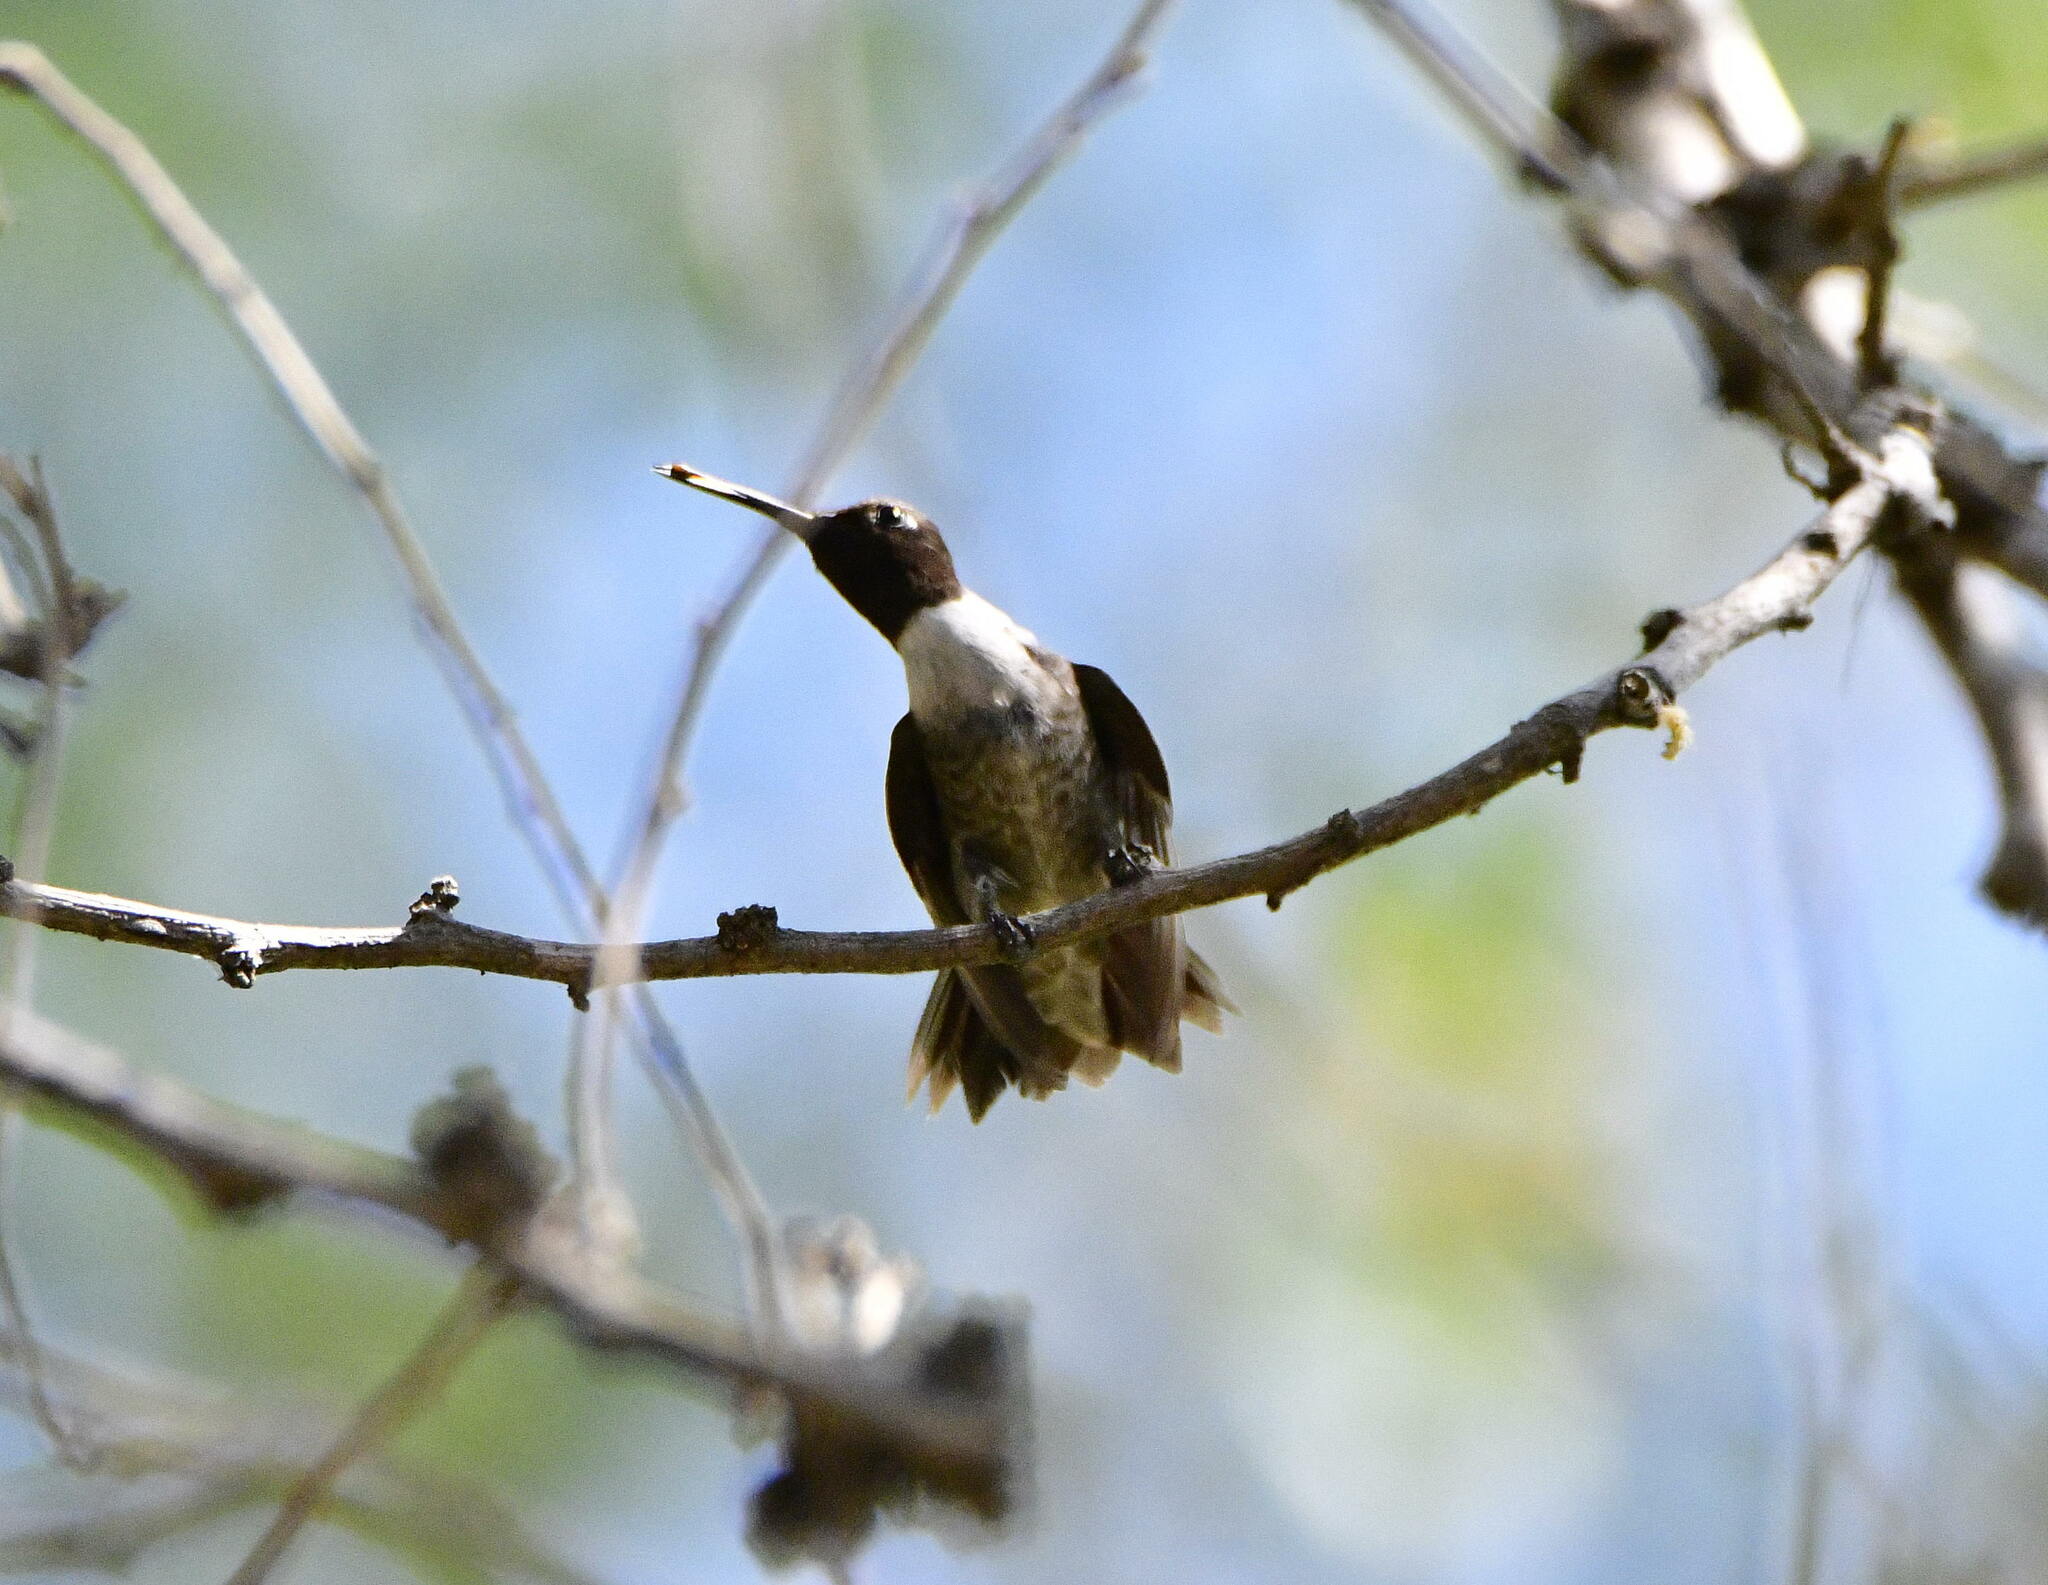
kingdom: Animalia
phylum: Chordata
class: Aves
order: Apodiformes
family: Trochilidae
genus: Archilochus
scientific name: Archilochus alexandri
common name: Black-chinned hummingbird
